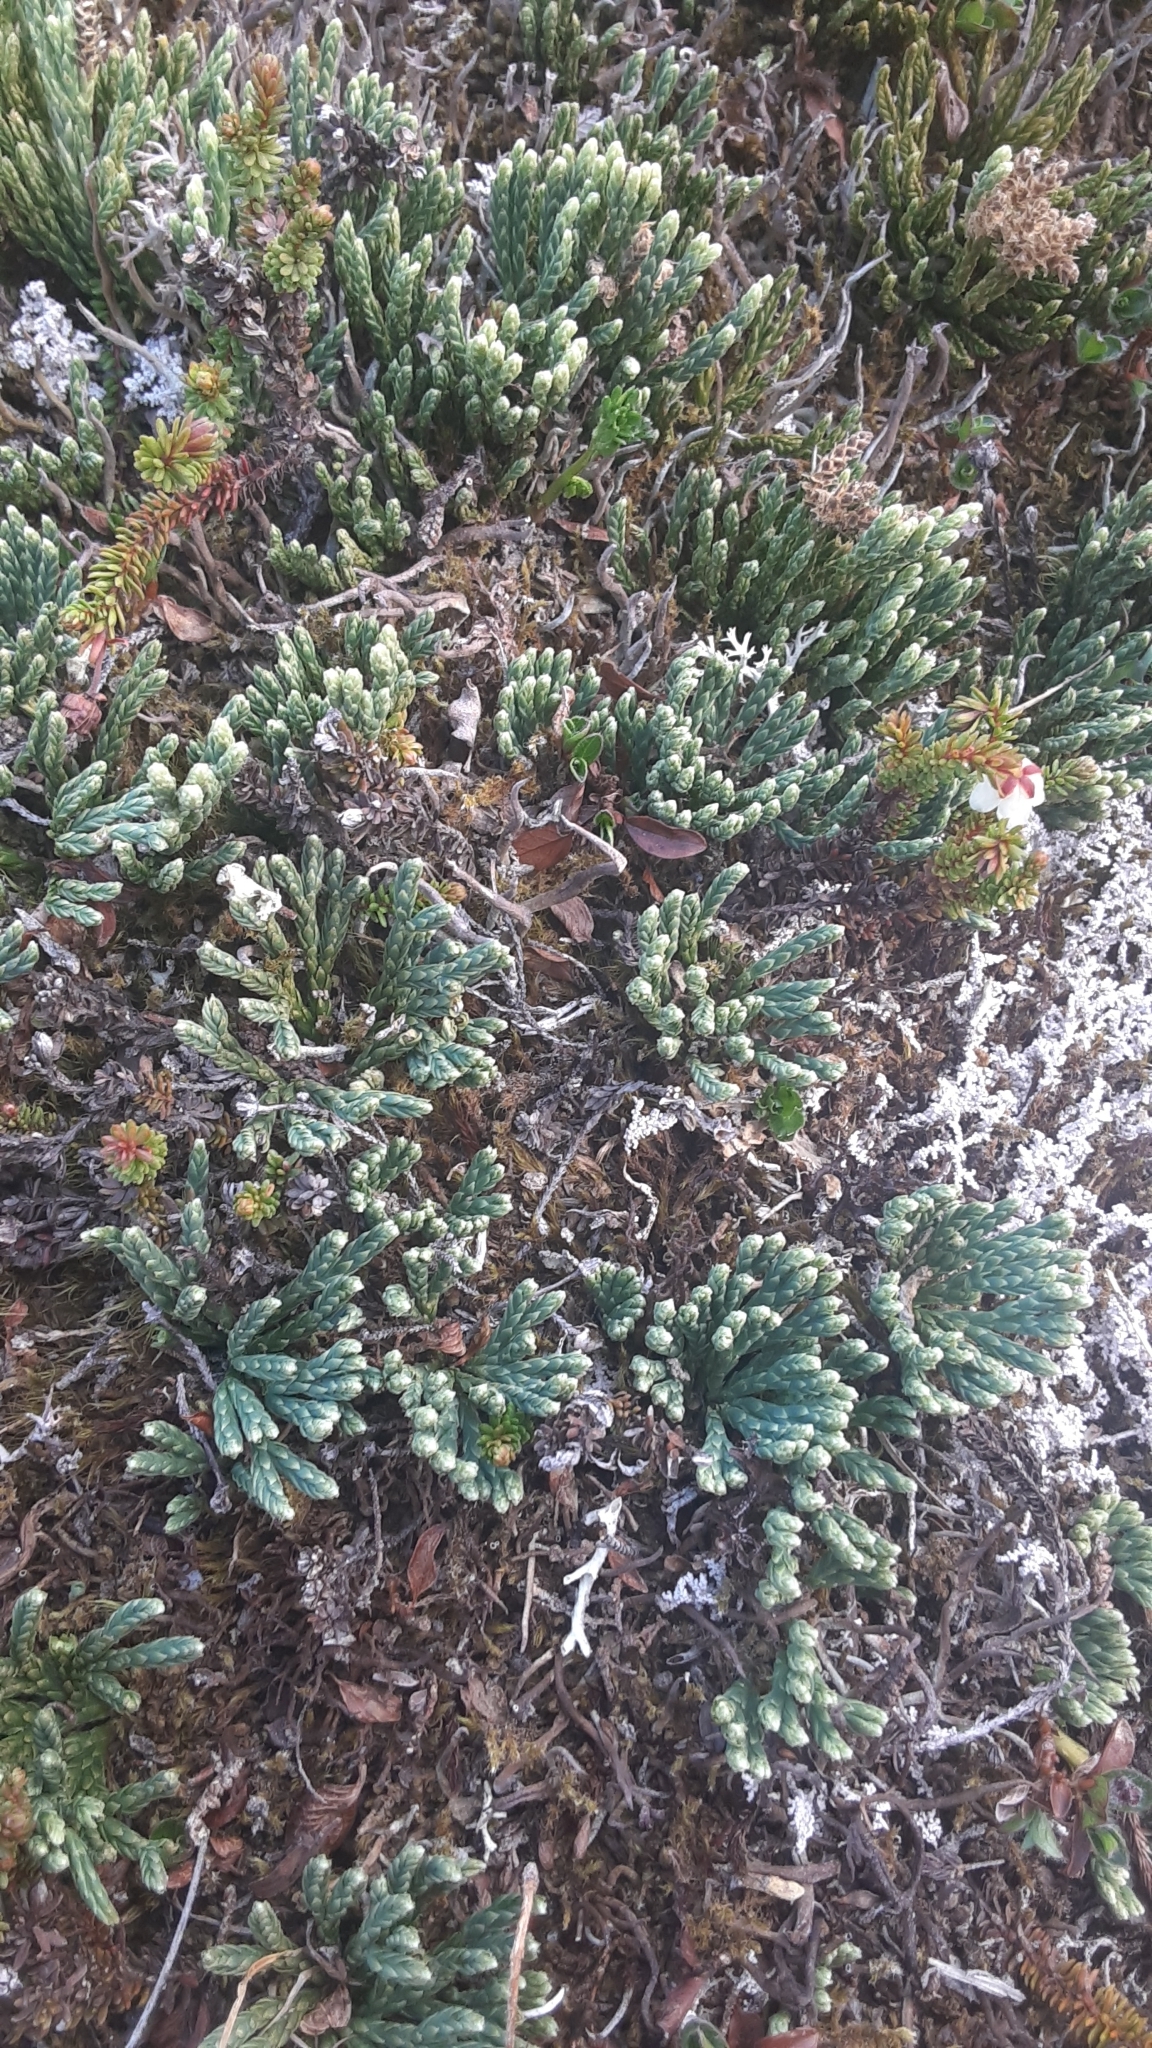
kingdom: Plantae
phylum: Tracheophyta
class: Lycopodiopsida
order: Lycopodiales
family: Lycopodiaceae
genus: Diphasiastrum
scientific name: Diphasiastrum alpinum
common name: Alpine clubmoss
